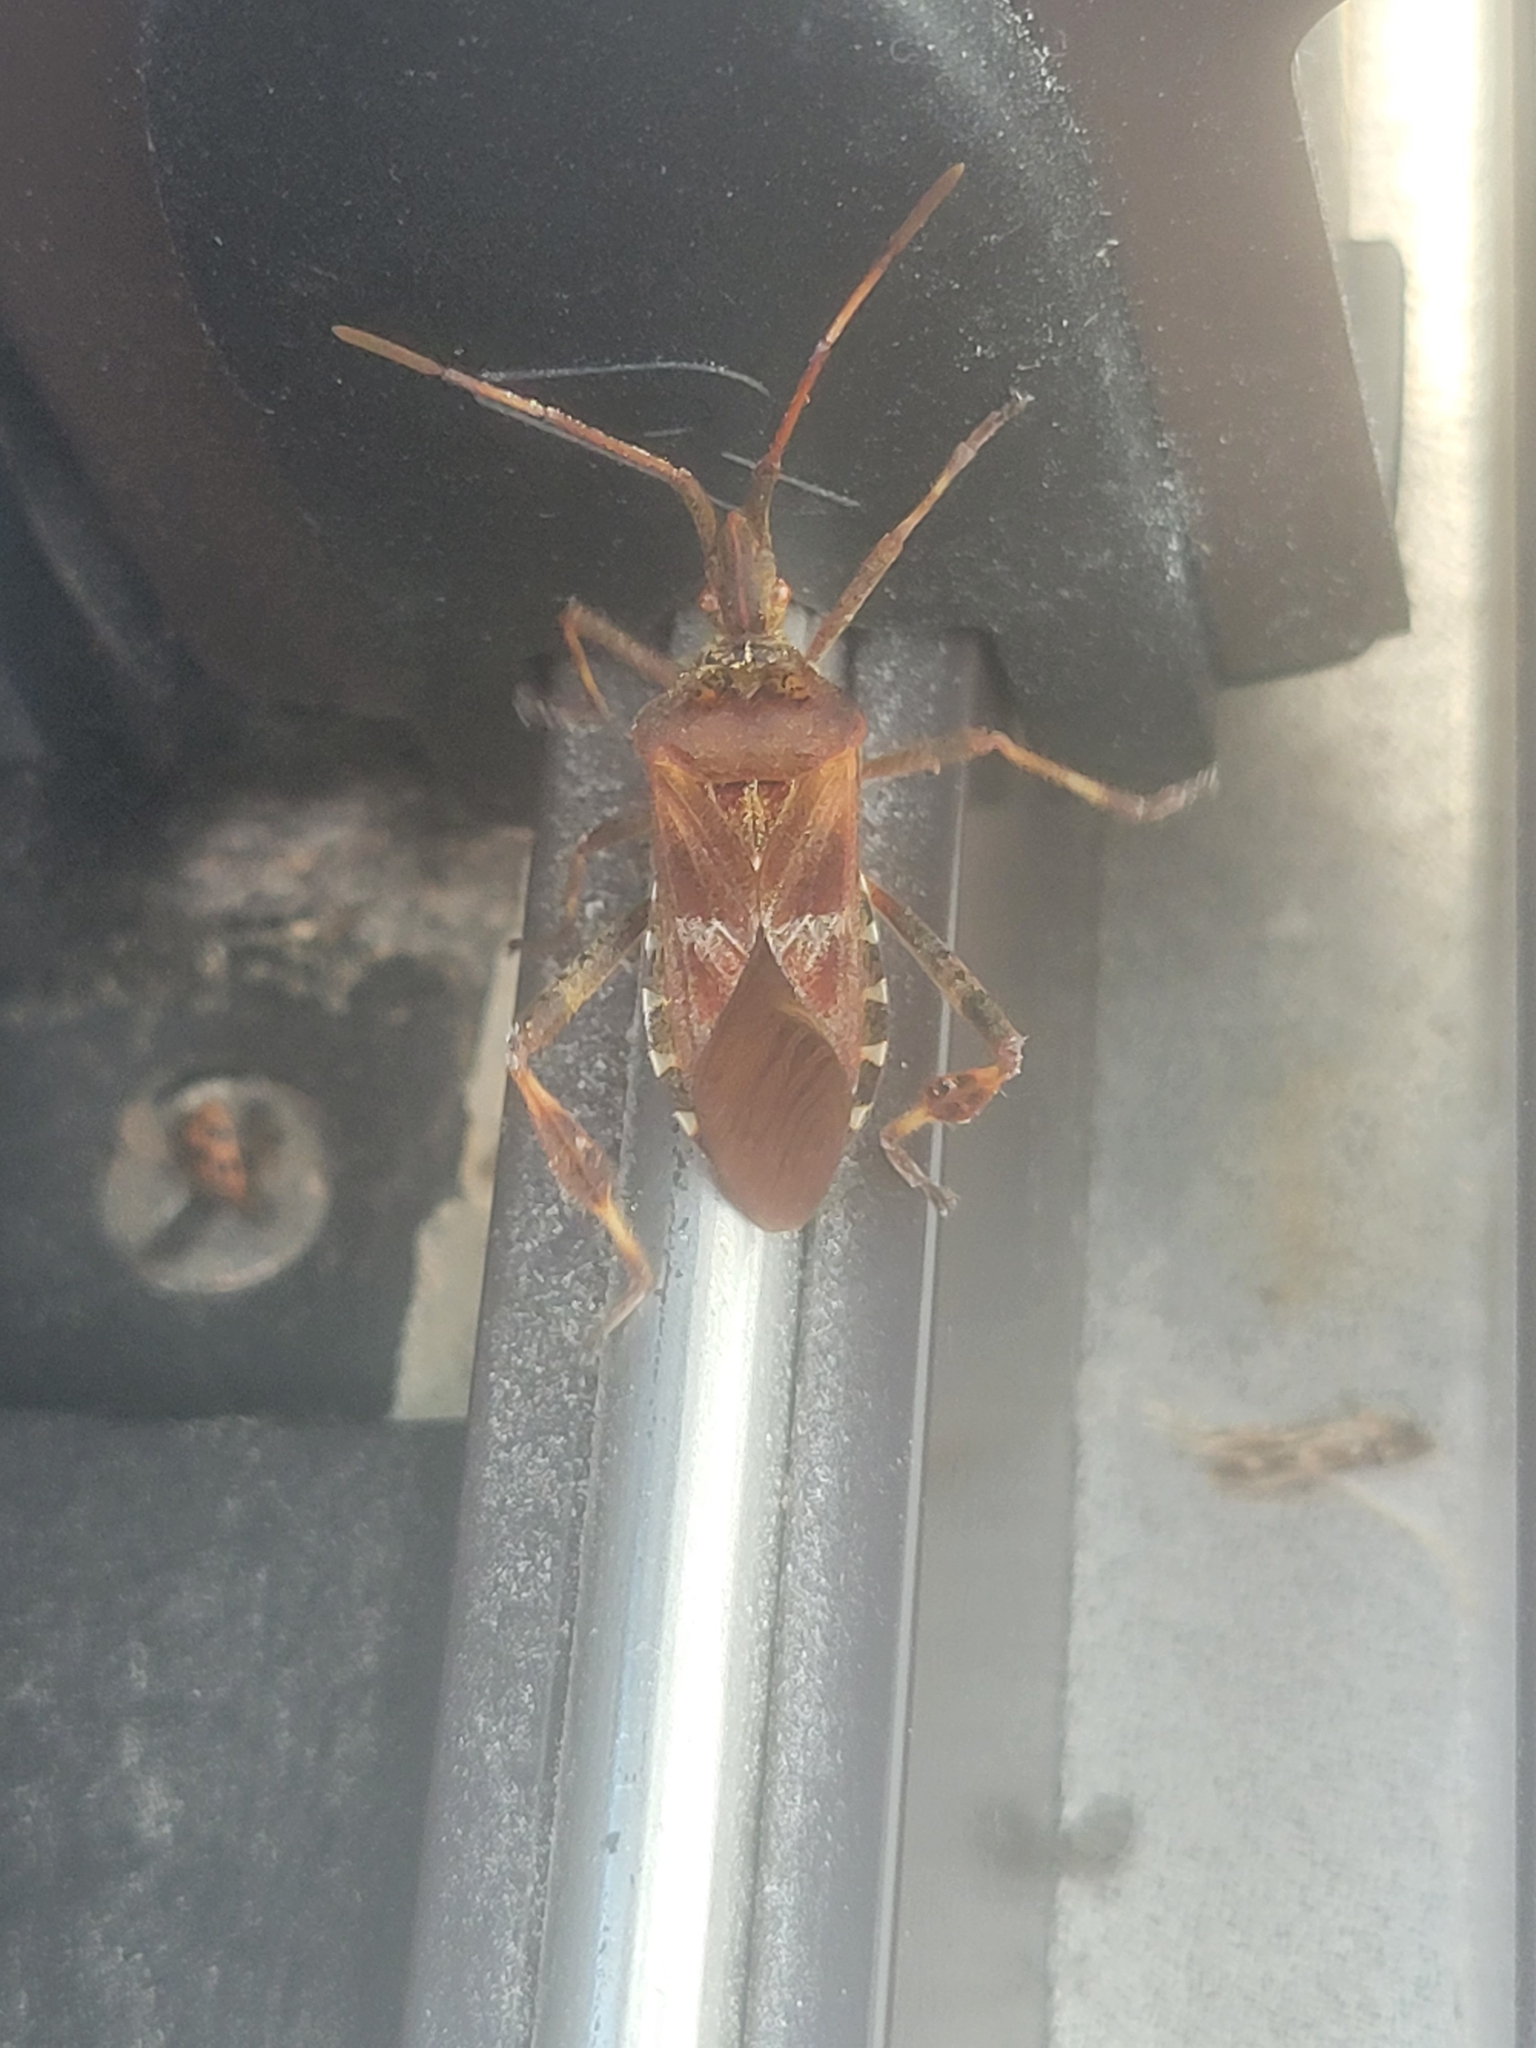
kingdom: Animalia
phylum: Arthropoda
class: Insecta
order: Hemiptera
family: Coreidae
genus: Leptoglossus
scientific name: Leptoglossus occidentalis
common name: Western conifer-seed bug
